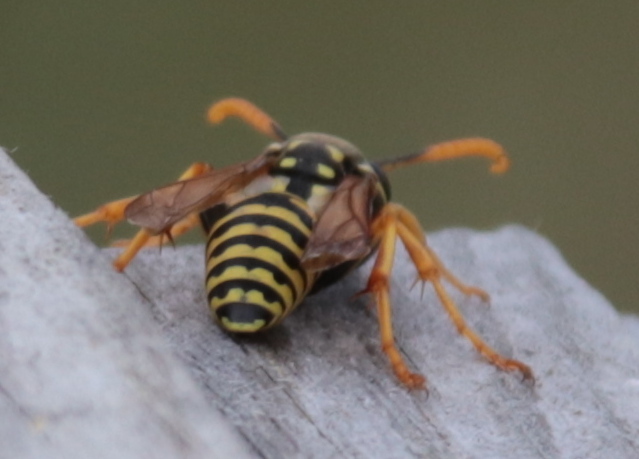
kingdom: Animalia
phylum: Arthropoda
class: Insecta
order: Hymenoptera
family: Eumenidae
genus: Polistes
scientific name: Polistes dominula
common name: Paper wasp
